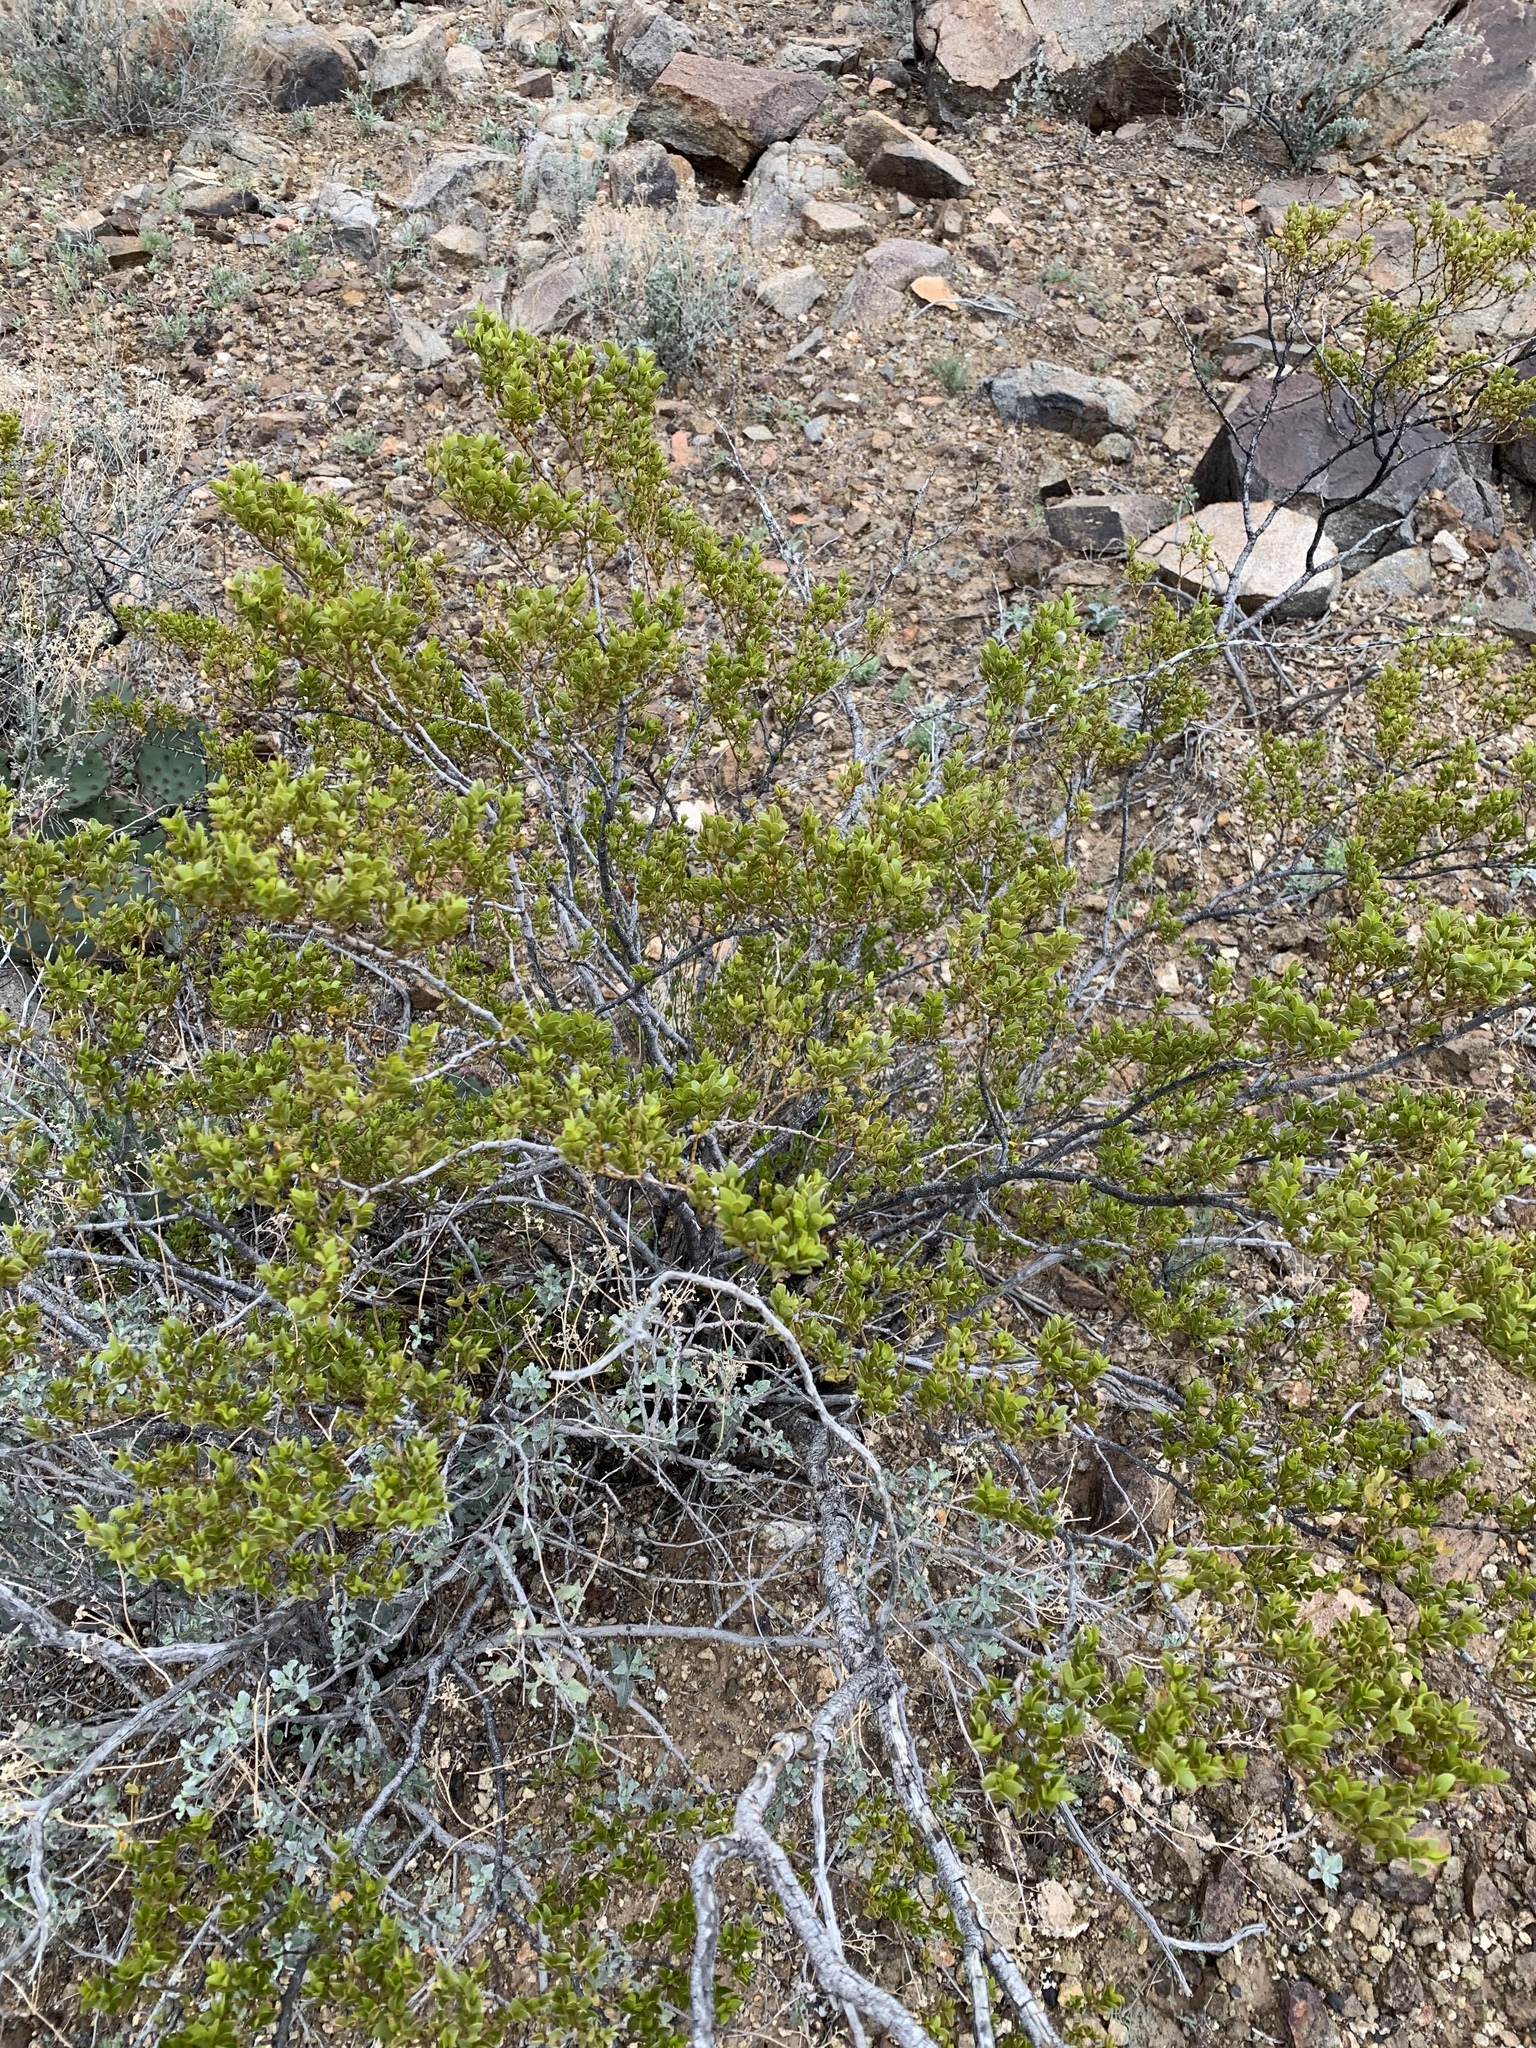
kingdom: Plantae
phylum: Tracheophyta
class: Magnoliopsida
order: Zygophyllales
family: Zygophyllaceae
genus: Larrea
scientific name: Larrea tridentata
